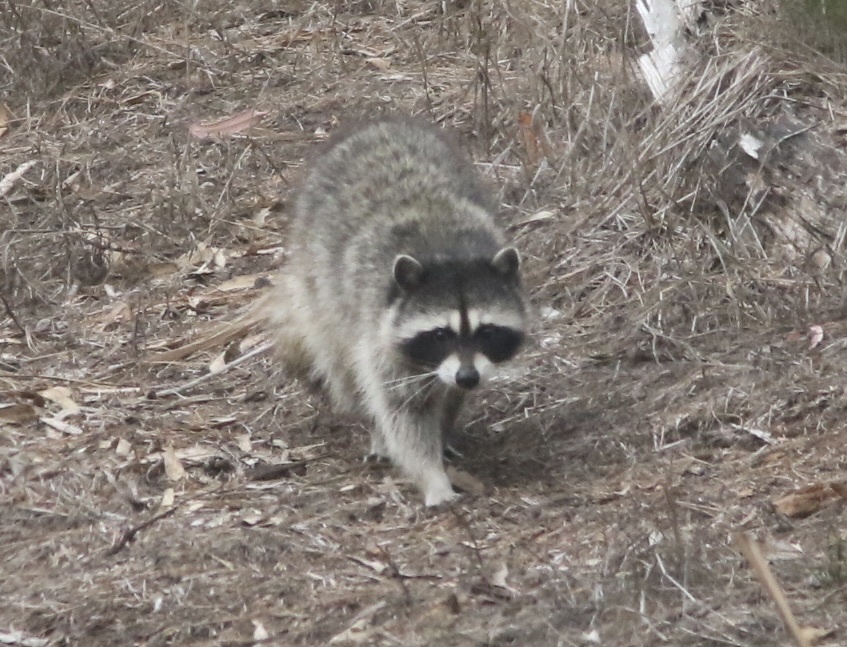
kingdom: Animalia
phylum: Chordata
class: Mammalia
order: Carnivora
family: Procyonidae
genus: Procyon
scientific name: Procyon lotor
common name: Raccoon
